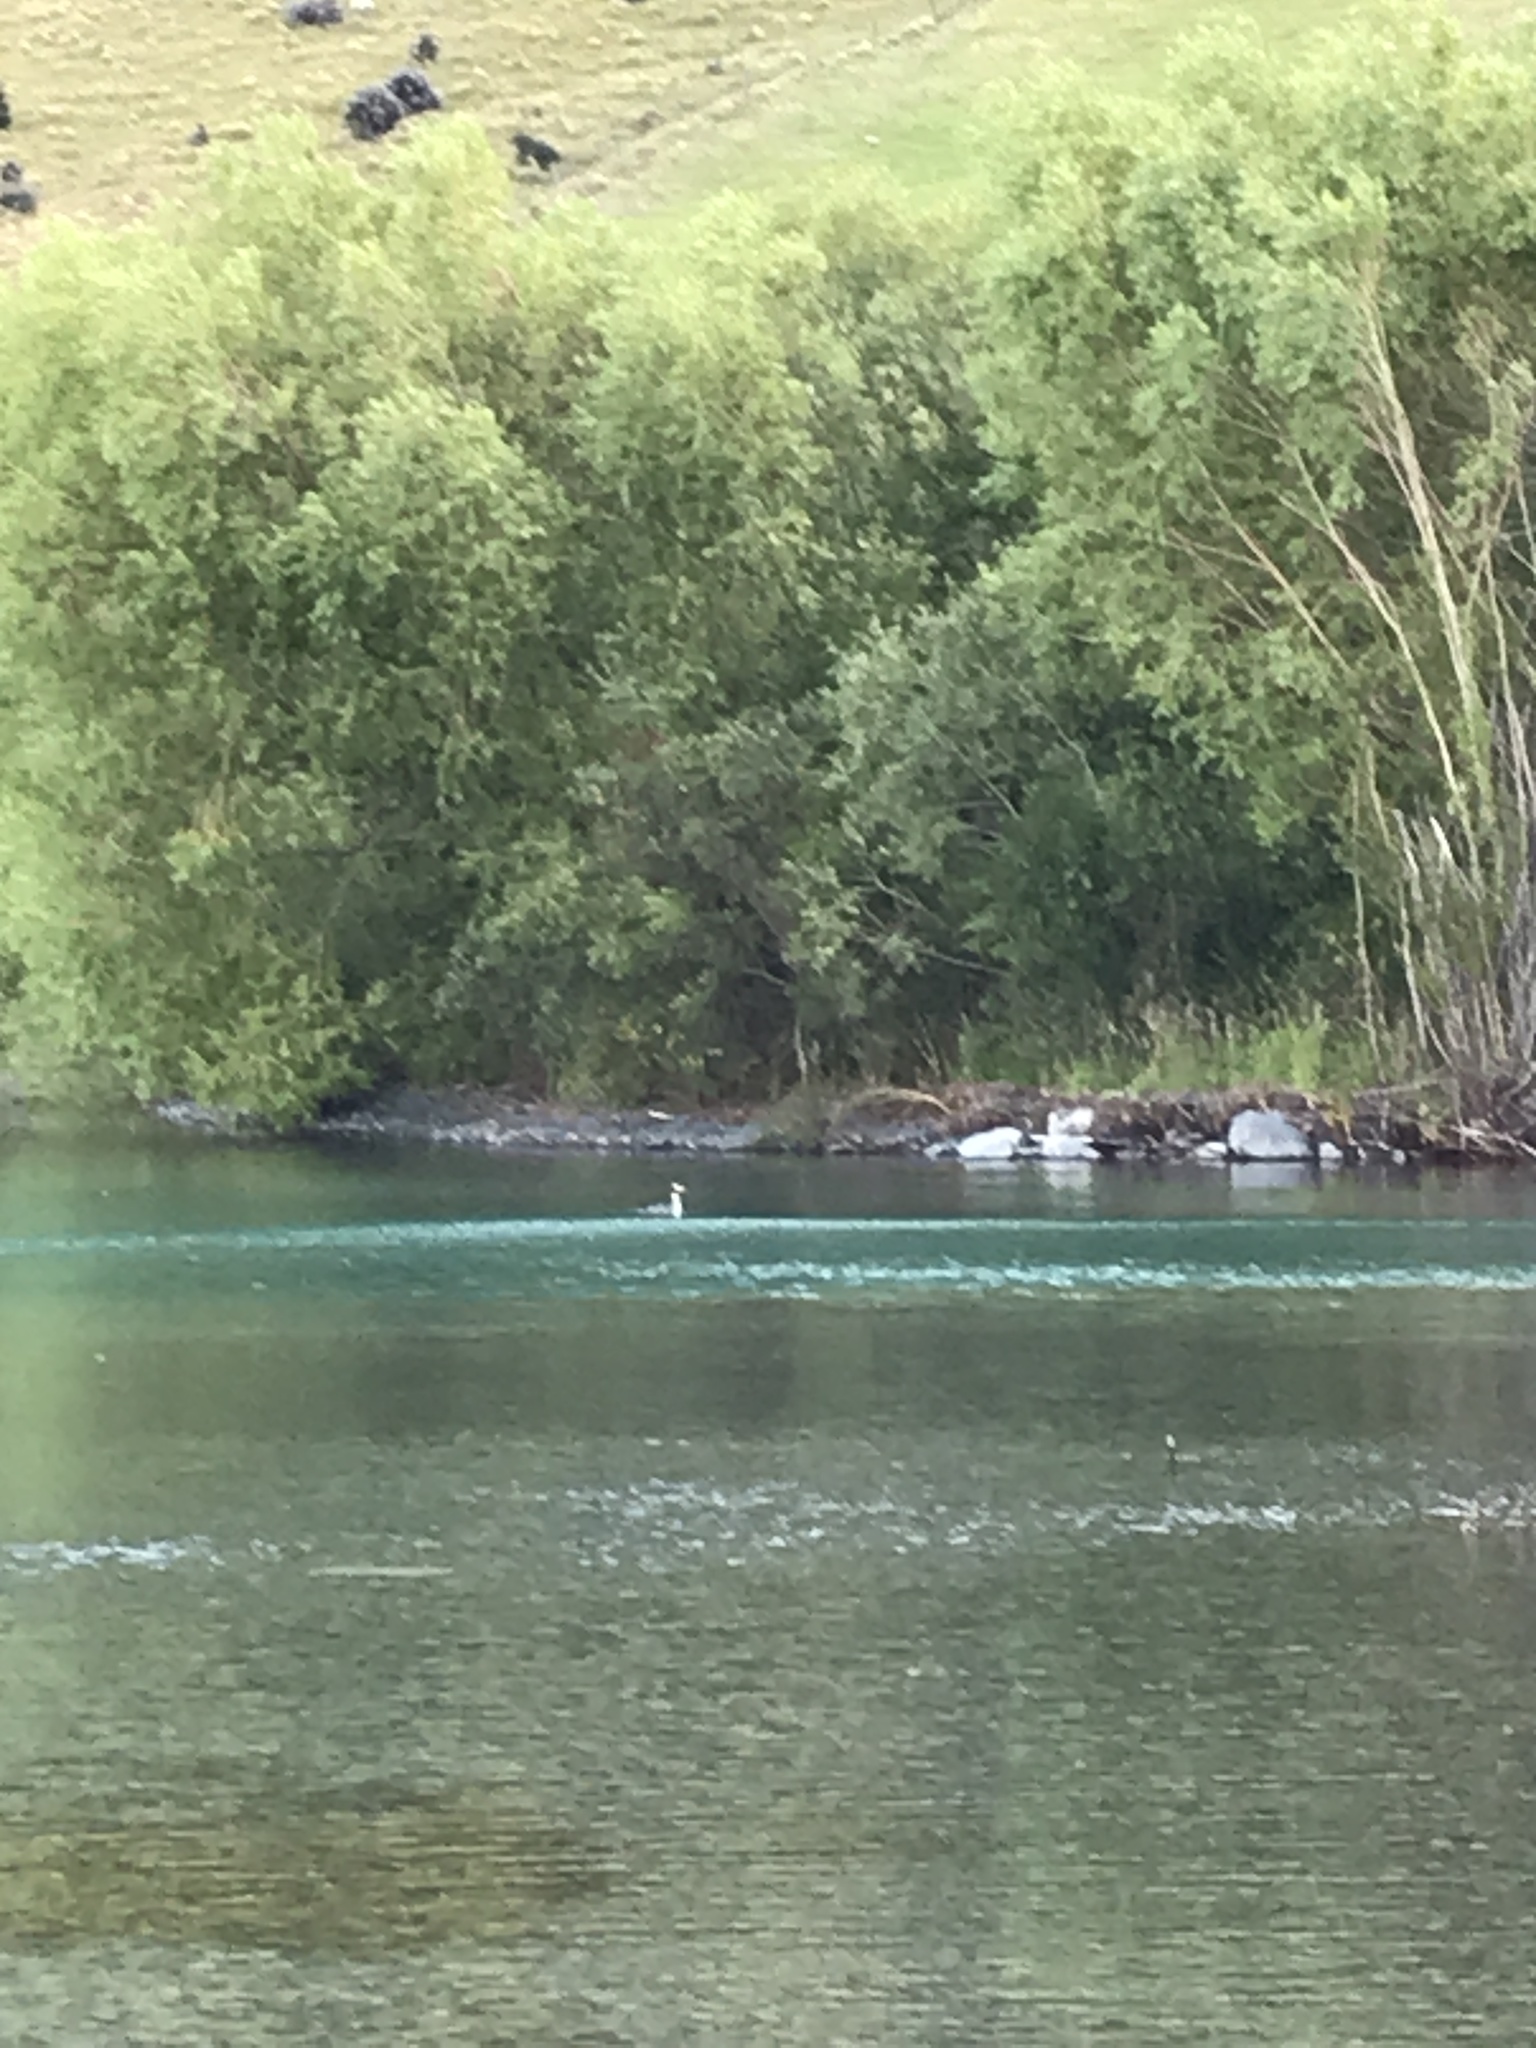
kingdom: Animalia
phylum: Chordata
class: Aves
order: Podicipediformes
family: Podicipedidae
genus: Podiceps
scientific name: Podiceps cristatus
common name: Great crested grebe
